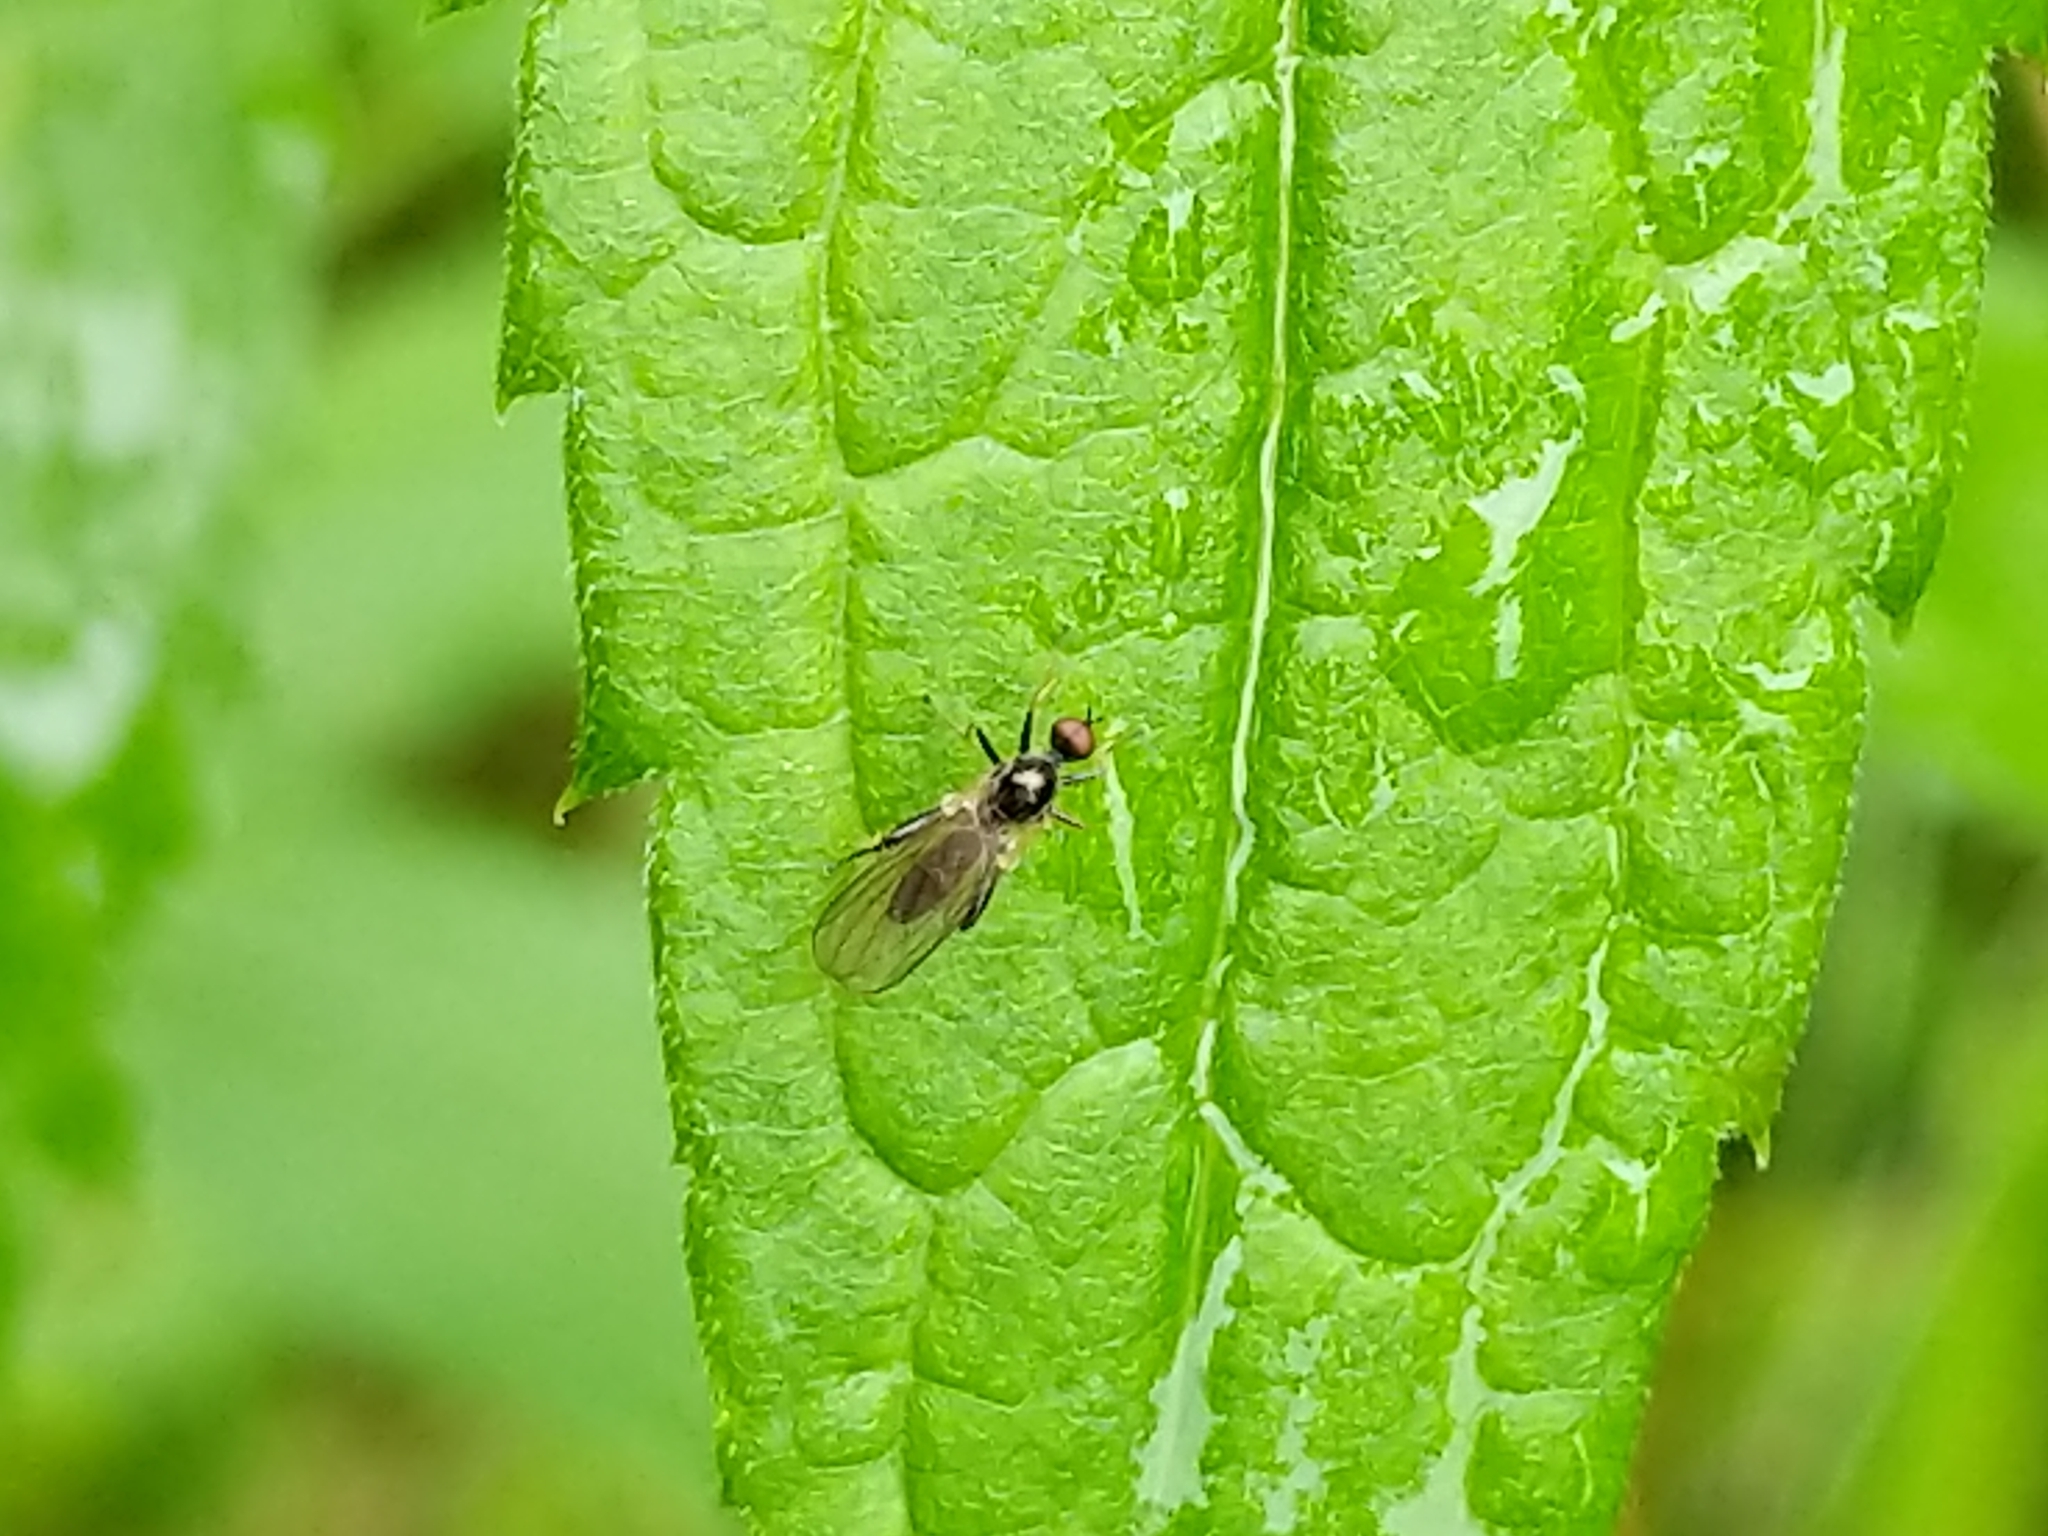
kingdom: Animalia
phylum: Arthropoda
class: Insecta
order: Diptera
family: Hybotidae
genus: Hybos
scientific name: Hybos reversus
